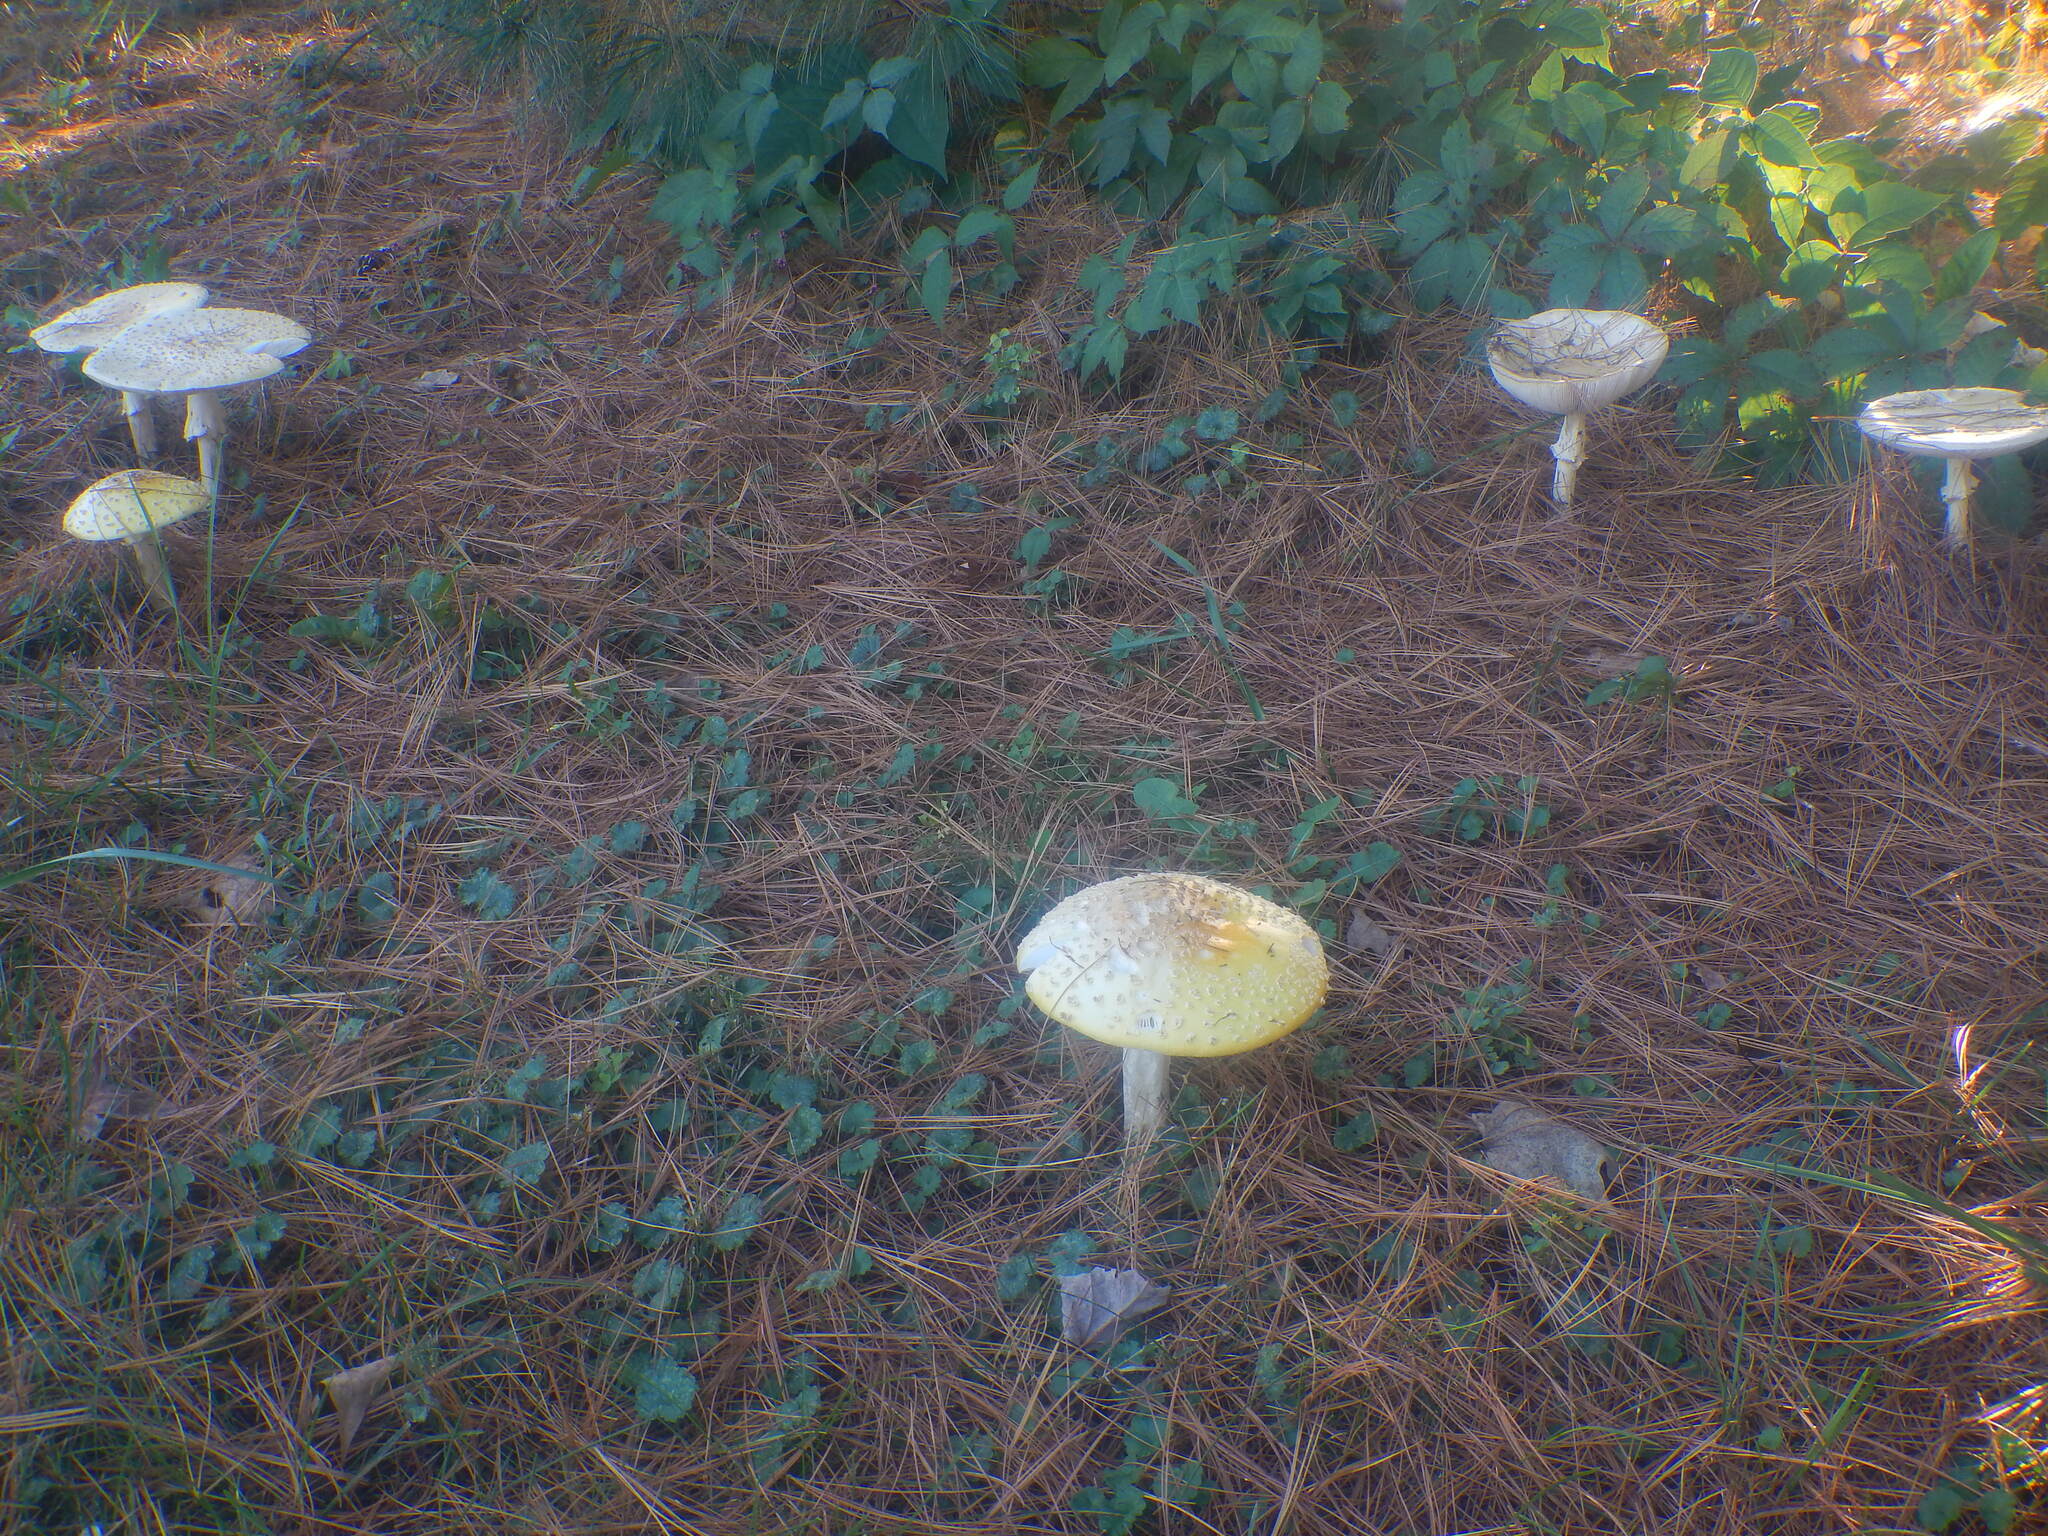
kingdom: Fungi
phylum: Basidiomycota
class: Agaricomycetes
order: Agaricales
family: Amanitaceae
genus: Amanita
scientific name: Amanita muscaria
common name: Fly agaric
